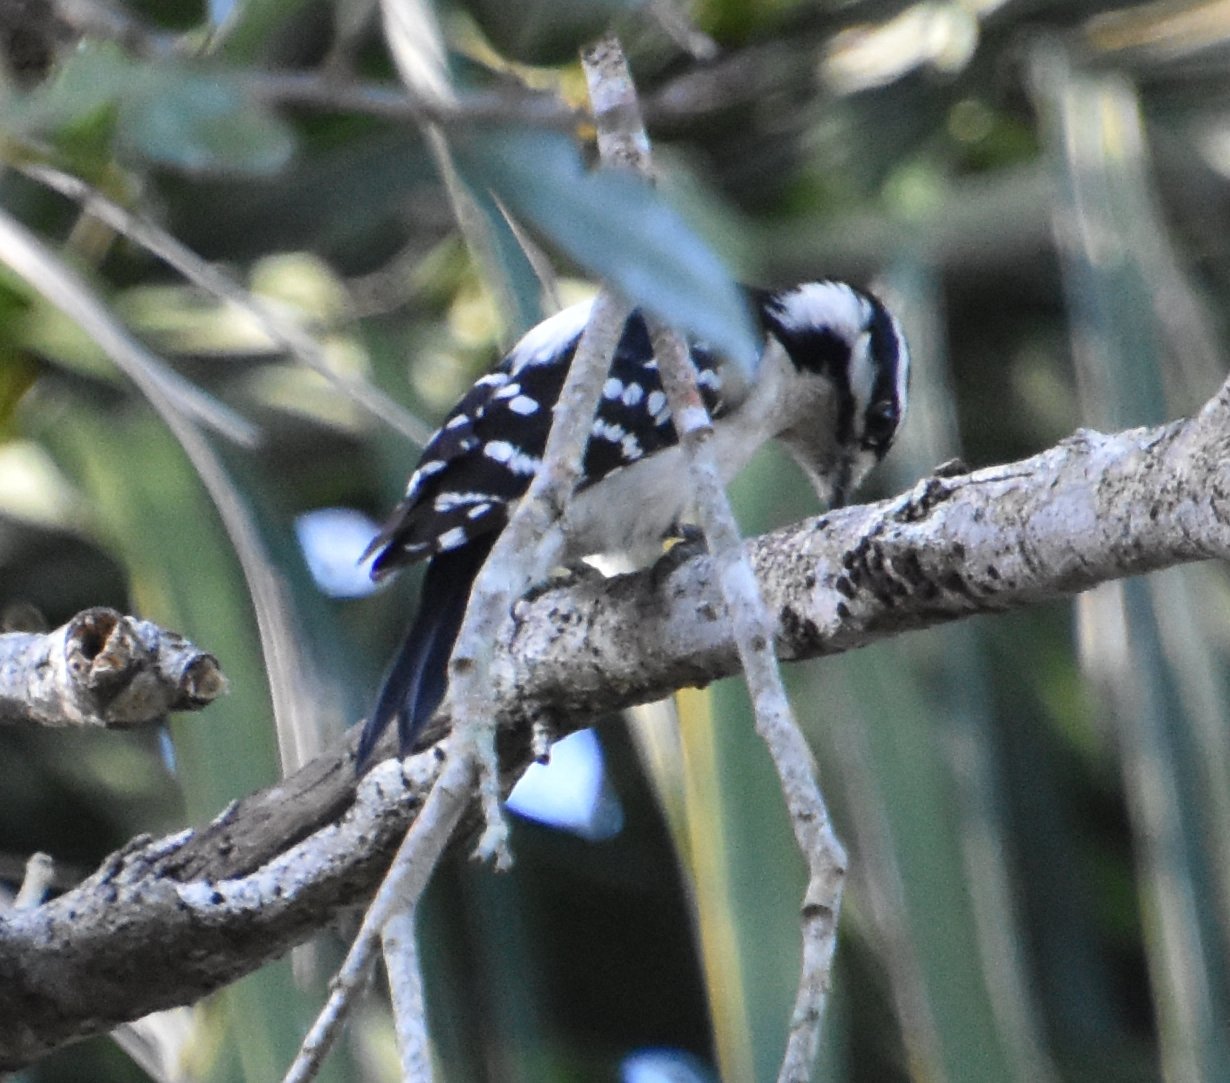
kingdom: Animalia
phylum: Chordata
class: Aves
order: Piciformes
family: Picidae
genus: Dryobates
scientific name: Dryobates pubescens
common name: Downy woodpecker
